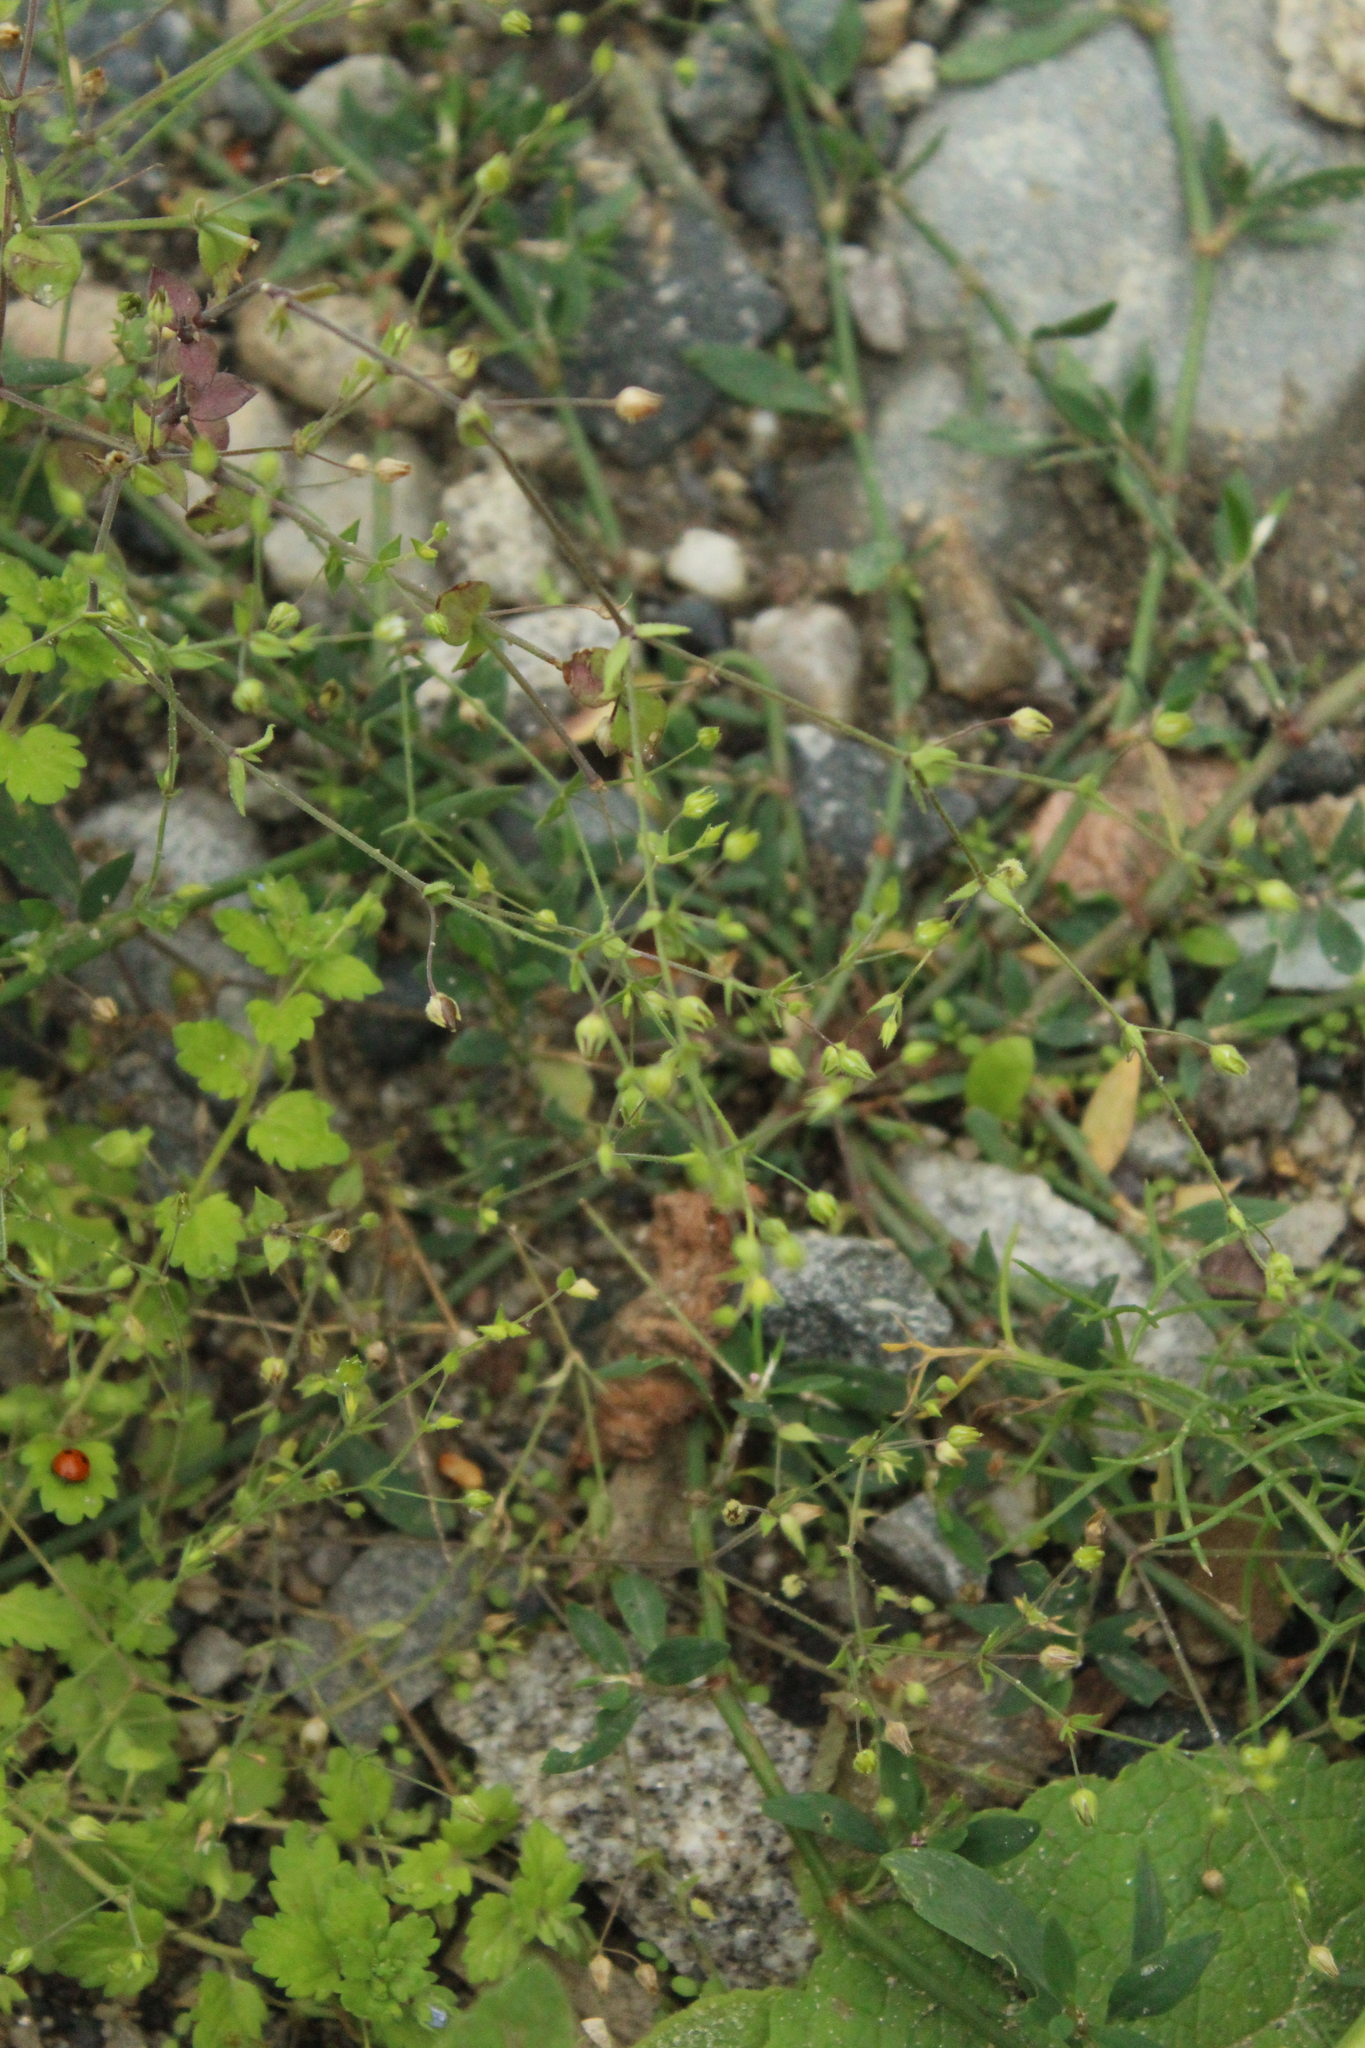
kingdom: Plantae
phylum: Tracheophyta
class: Magnoliopsida
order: Lamiales
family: Plantaginaceae
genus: Veronica
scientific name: Veronica persica
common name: Common field-speedwell
